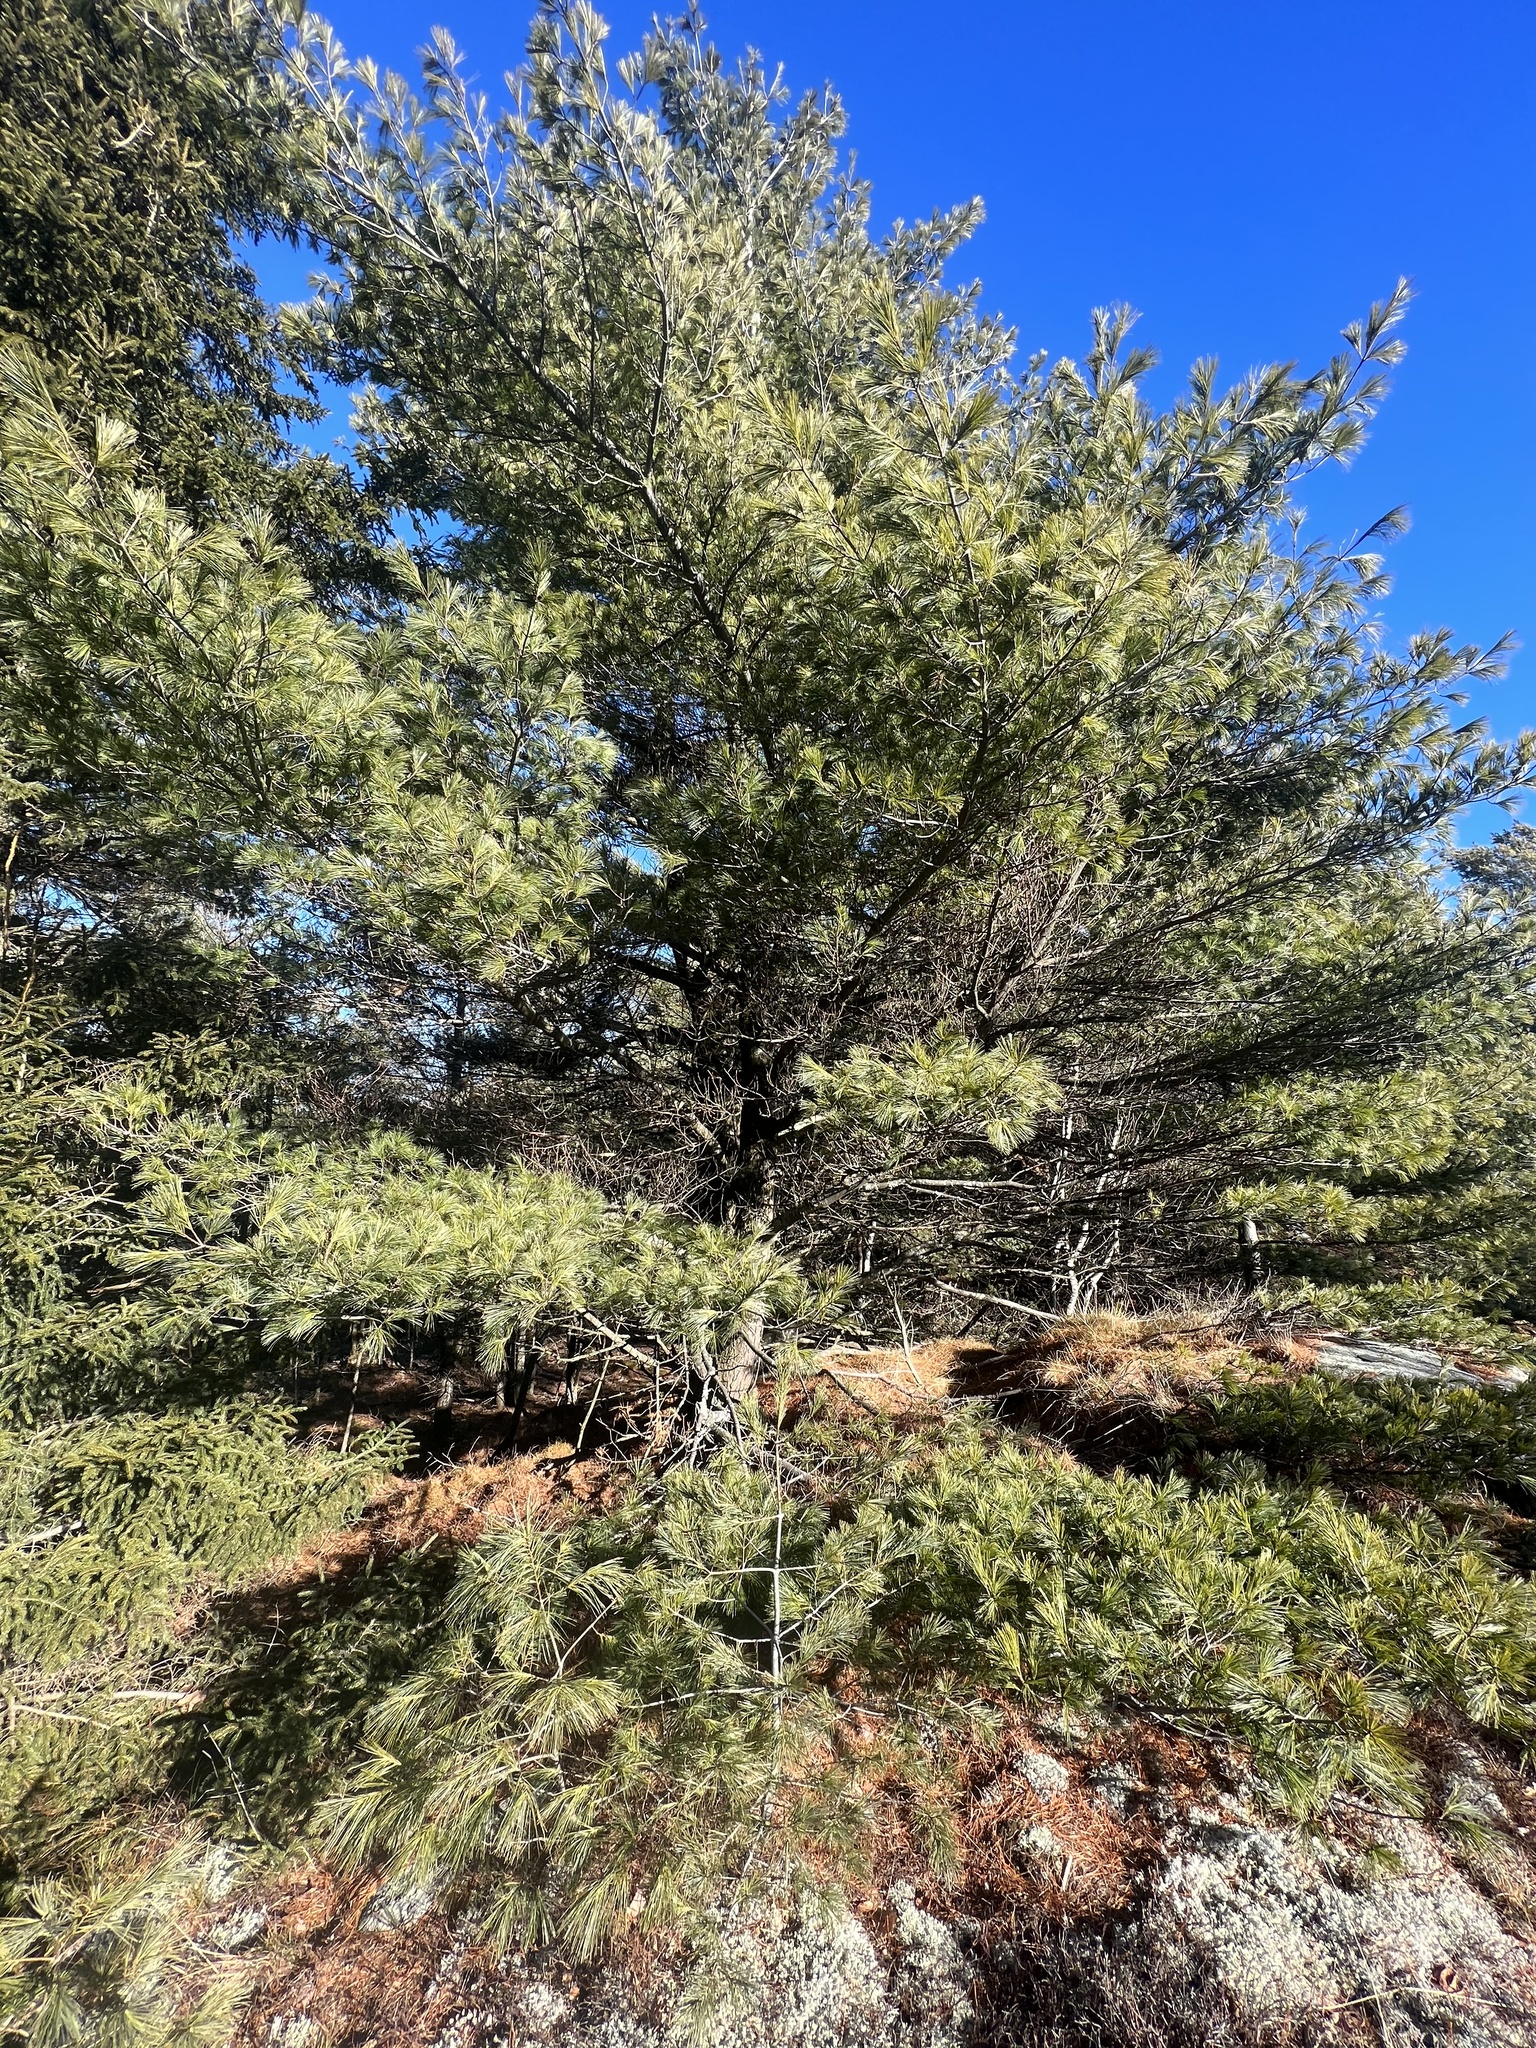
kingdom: Plantae
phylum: Tracheophyta
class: Pinopsida
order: Pinales
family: Pinaceae
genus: Pinus
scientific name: Pinus strobus
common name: Weymouth pine
